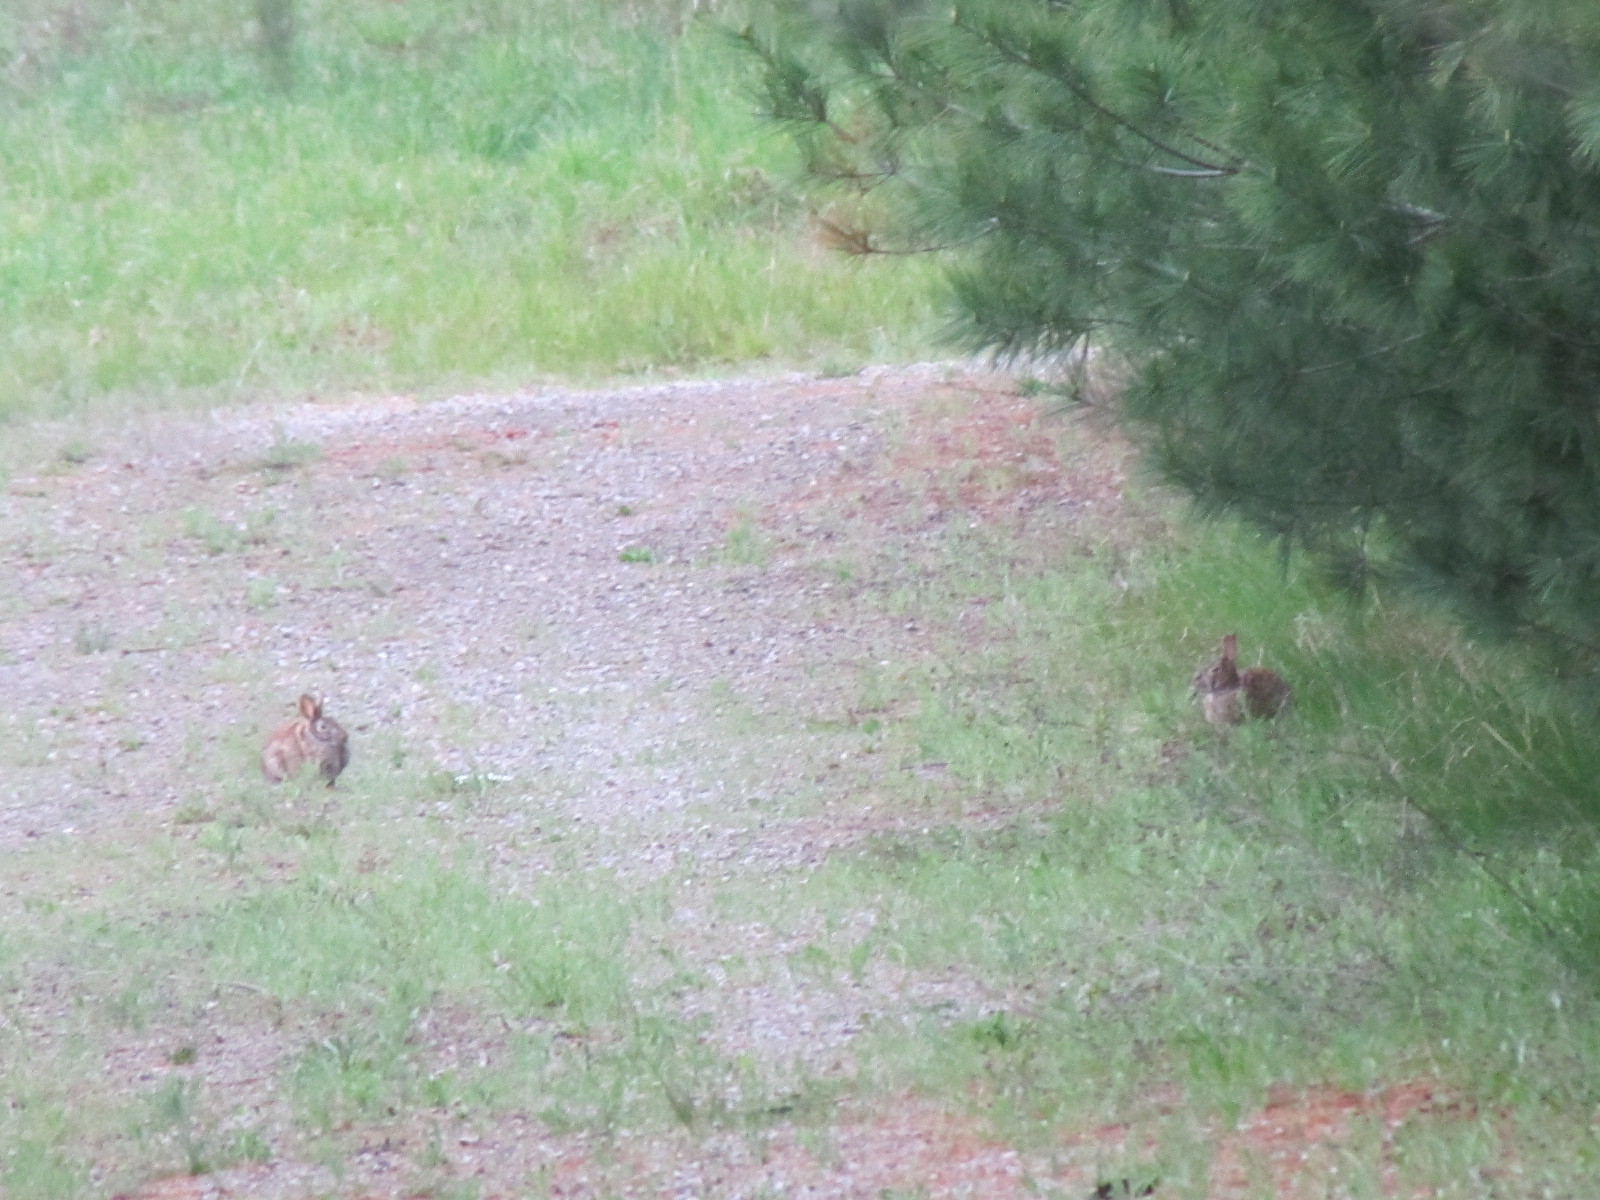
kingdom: Animalia
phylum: Chordata
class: Mammalia
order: Lagomorpha
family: Leporidae
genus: Sylvilagus
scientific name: Sylvilagus floridanus
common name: Eastern cottontail
